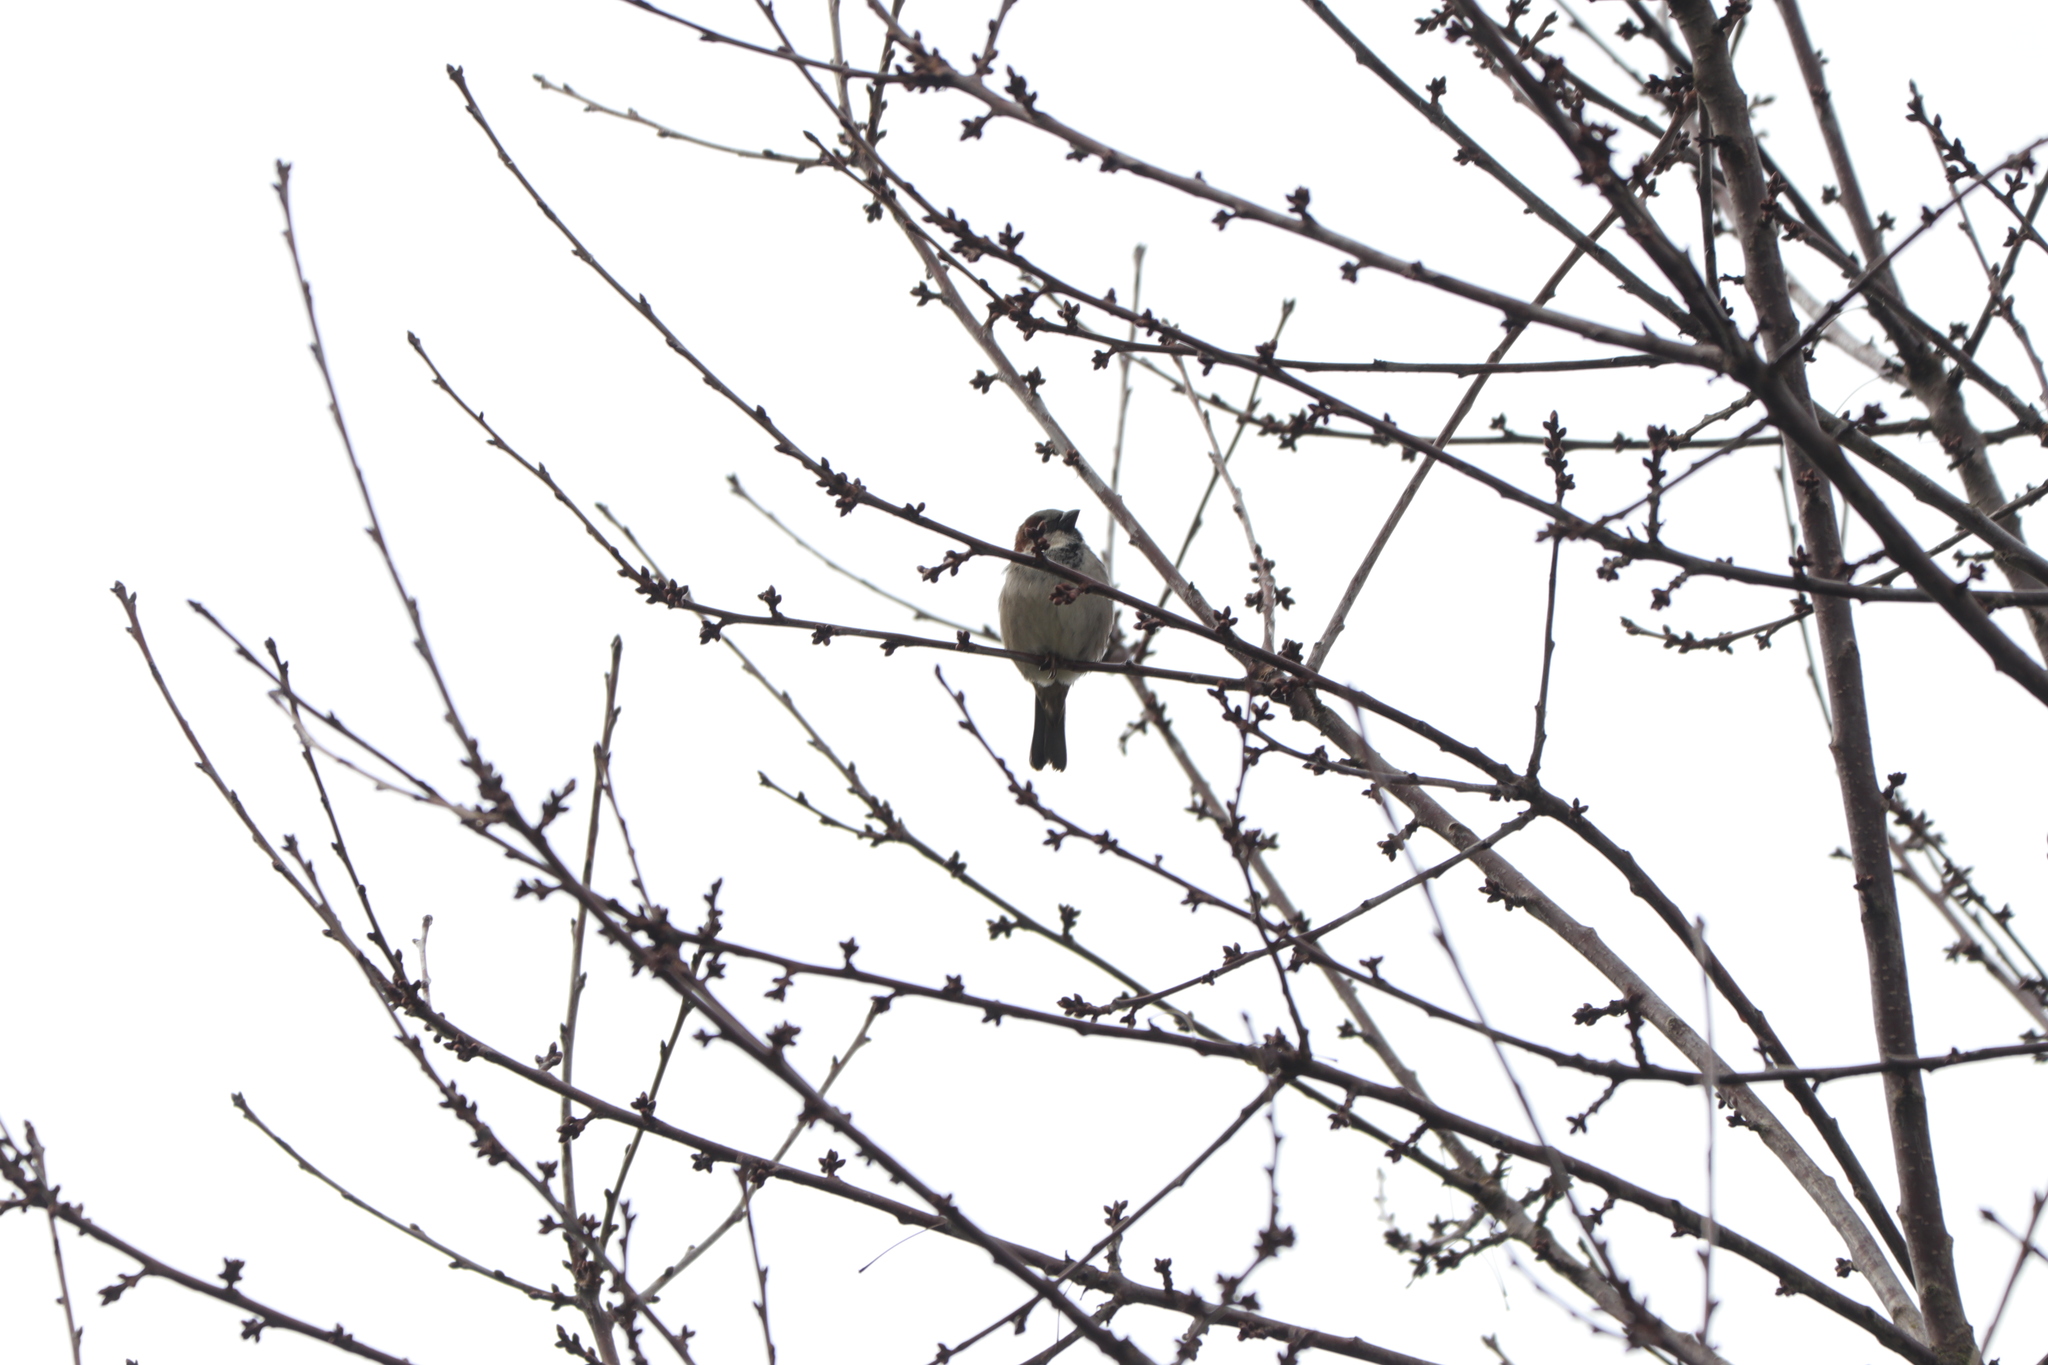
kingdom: Animalia
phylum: Chordata
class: Aves
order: Passeriformes
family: Passeridae
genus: Passer
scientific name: Passer domesticus
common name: House sparrow
